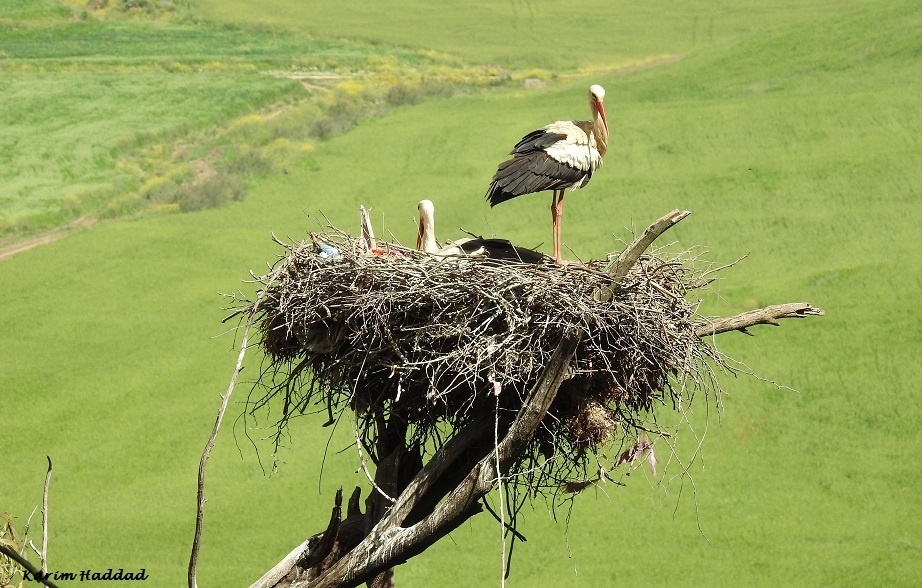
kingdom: Animalia
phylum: Chordata
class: Aves
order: Ciconiiformes
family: Ciconiidae
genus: Ciconia
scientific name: Ciconia ciconia
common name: White stork
